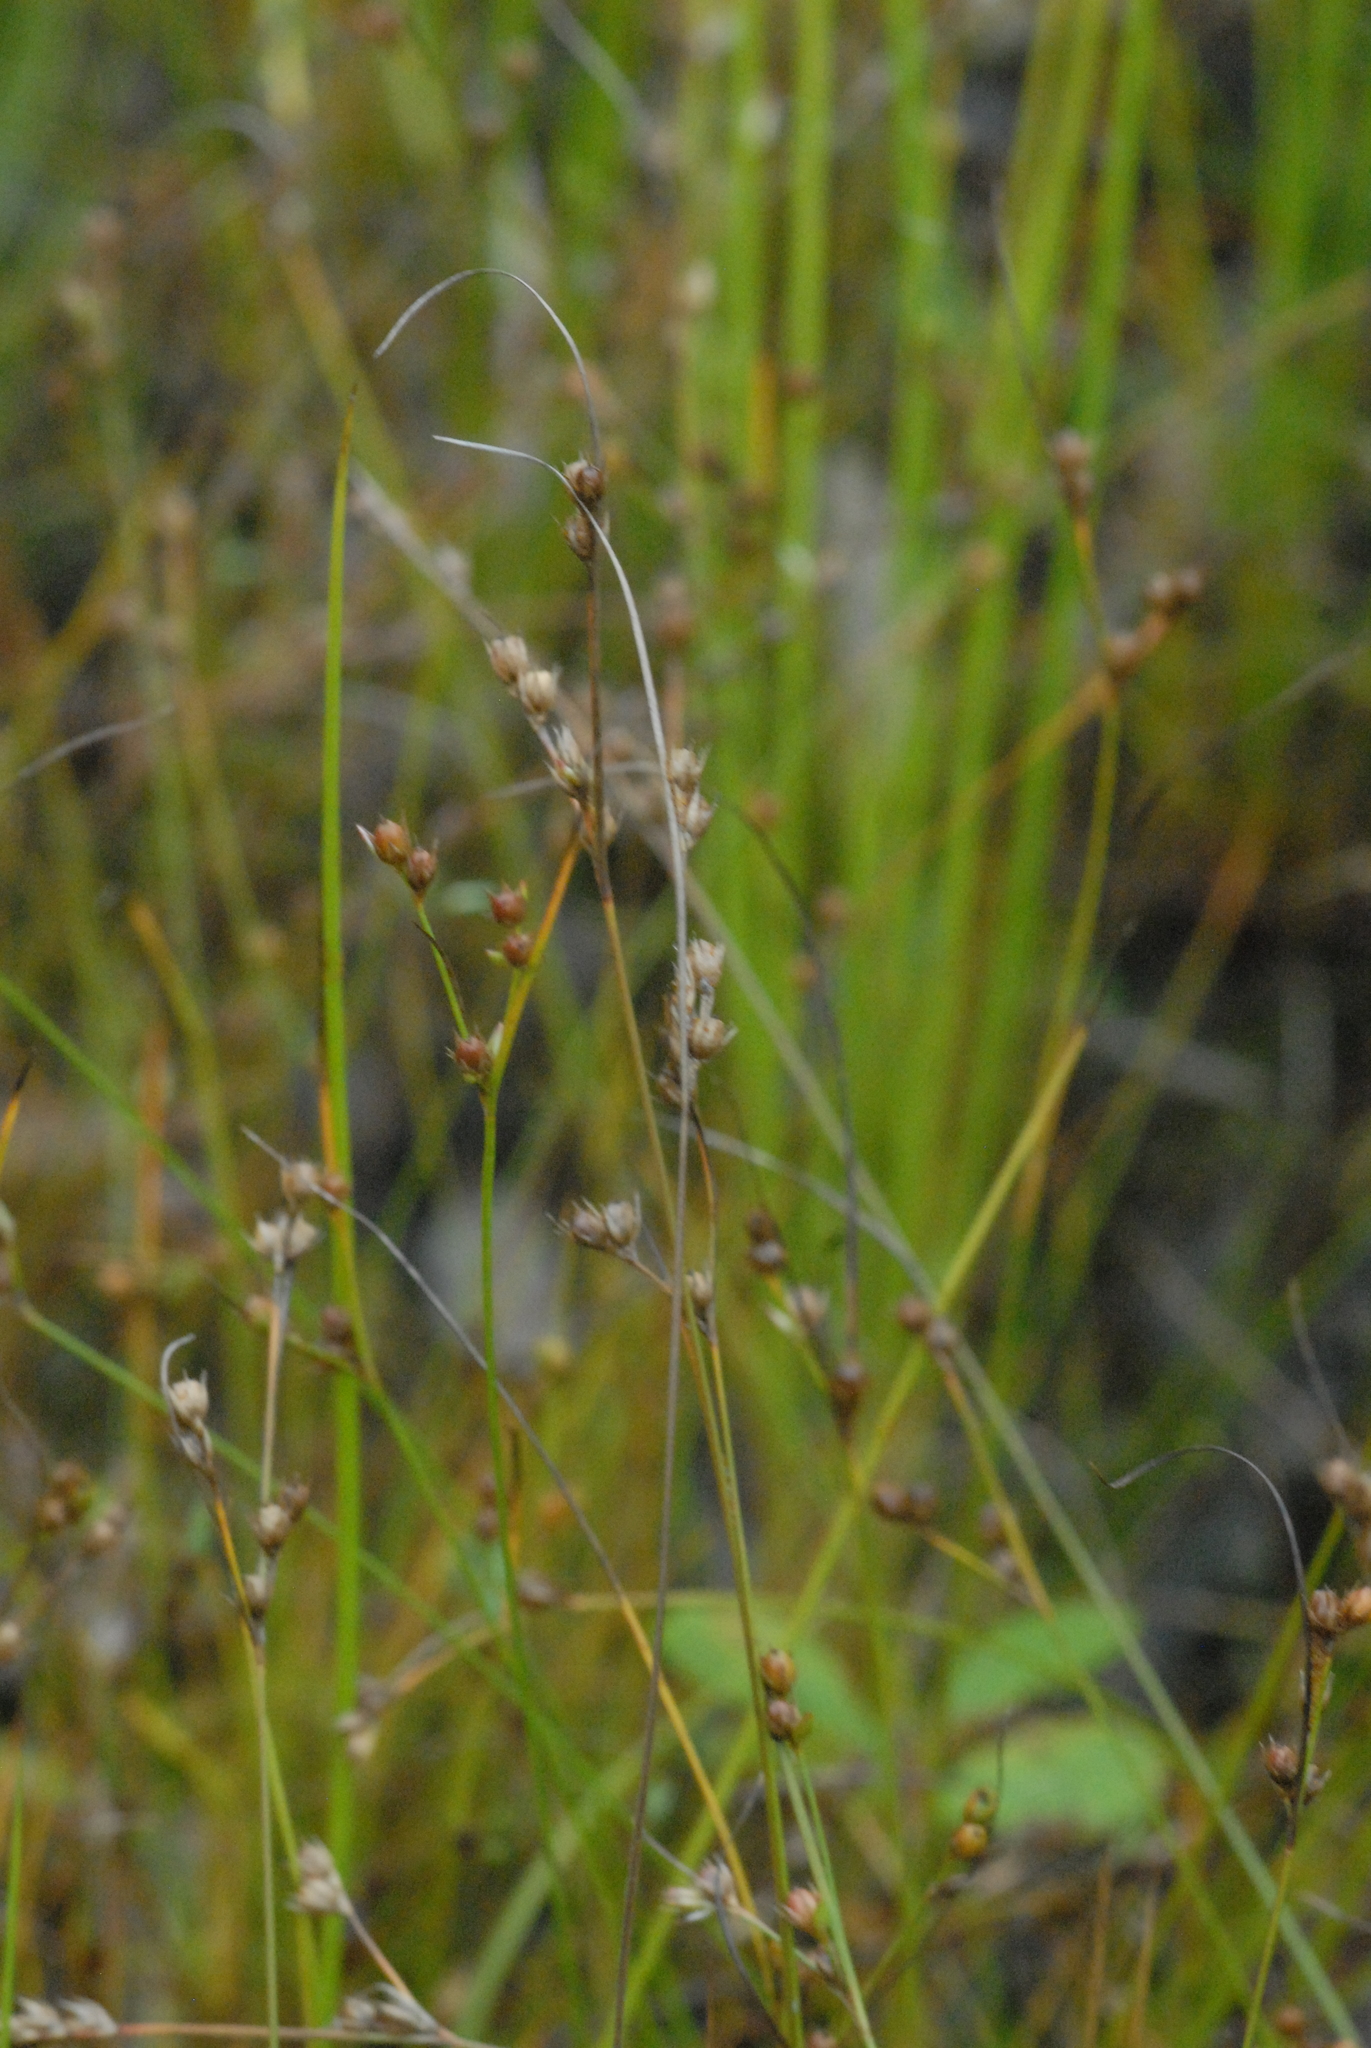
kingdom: Plantae
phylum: Tracheophyta
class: Liliopsida
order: Poales
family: Juncaceae
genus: Juncus
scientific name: Juncus tenuis
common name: Slender rush
